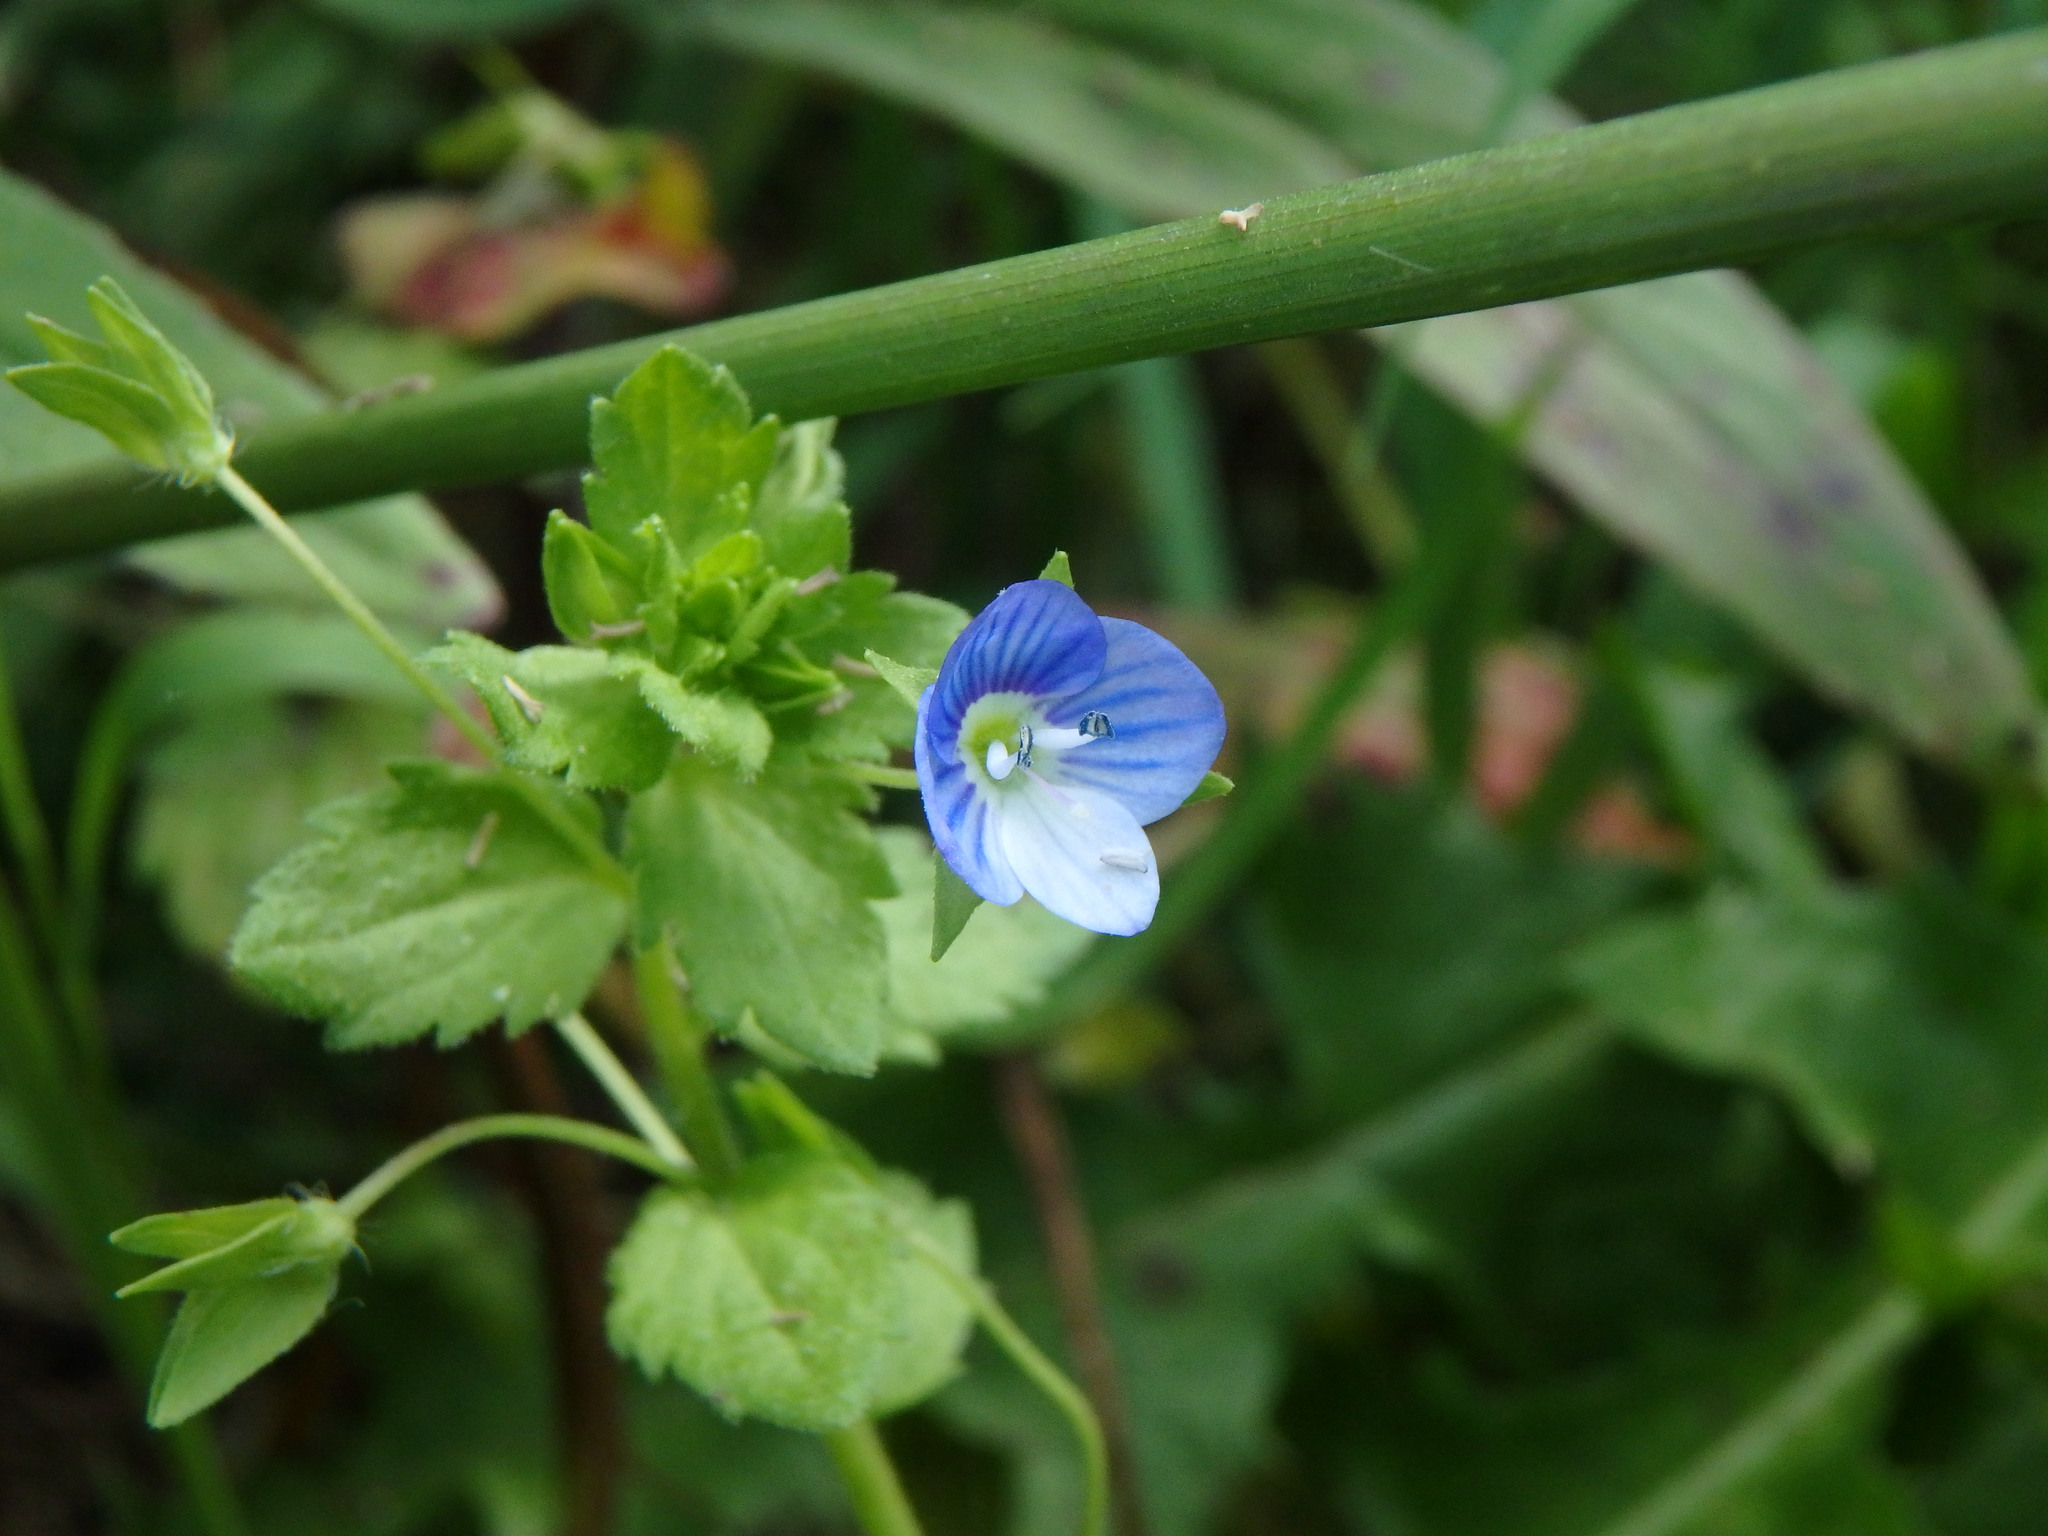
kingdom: Plantae
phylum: Tracheophyta
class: Magnoliopsida
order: Lamiales
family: Plantaginaceae
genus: Veronica
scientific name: Veronica persica
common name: Common field-speedwell
